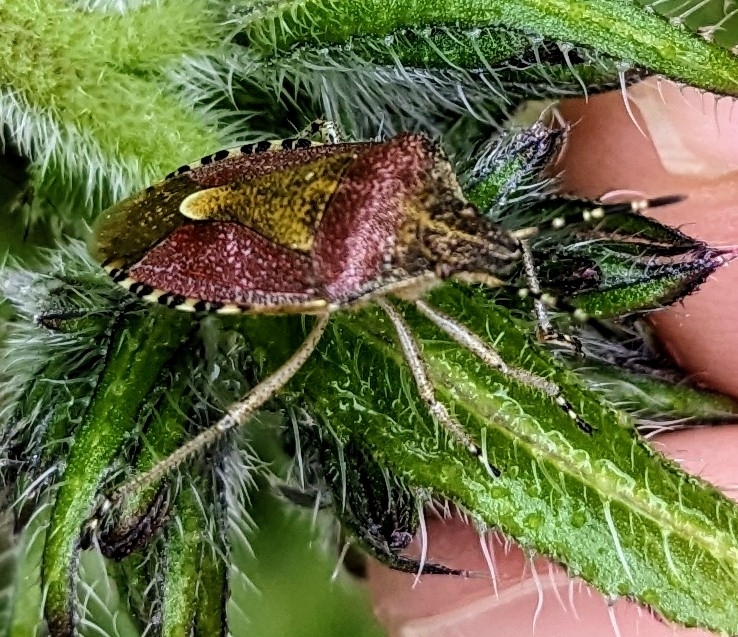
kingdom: Animalia
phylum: Arthropoda
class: Insecta
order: Hemiptera
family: Pentatomidae
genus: Dolycoris
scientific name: Dolycoris baccarum
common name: Sloe bug
